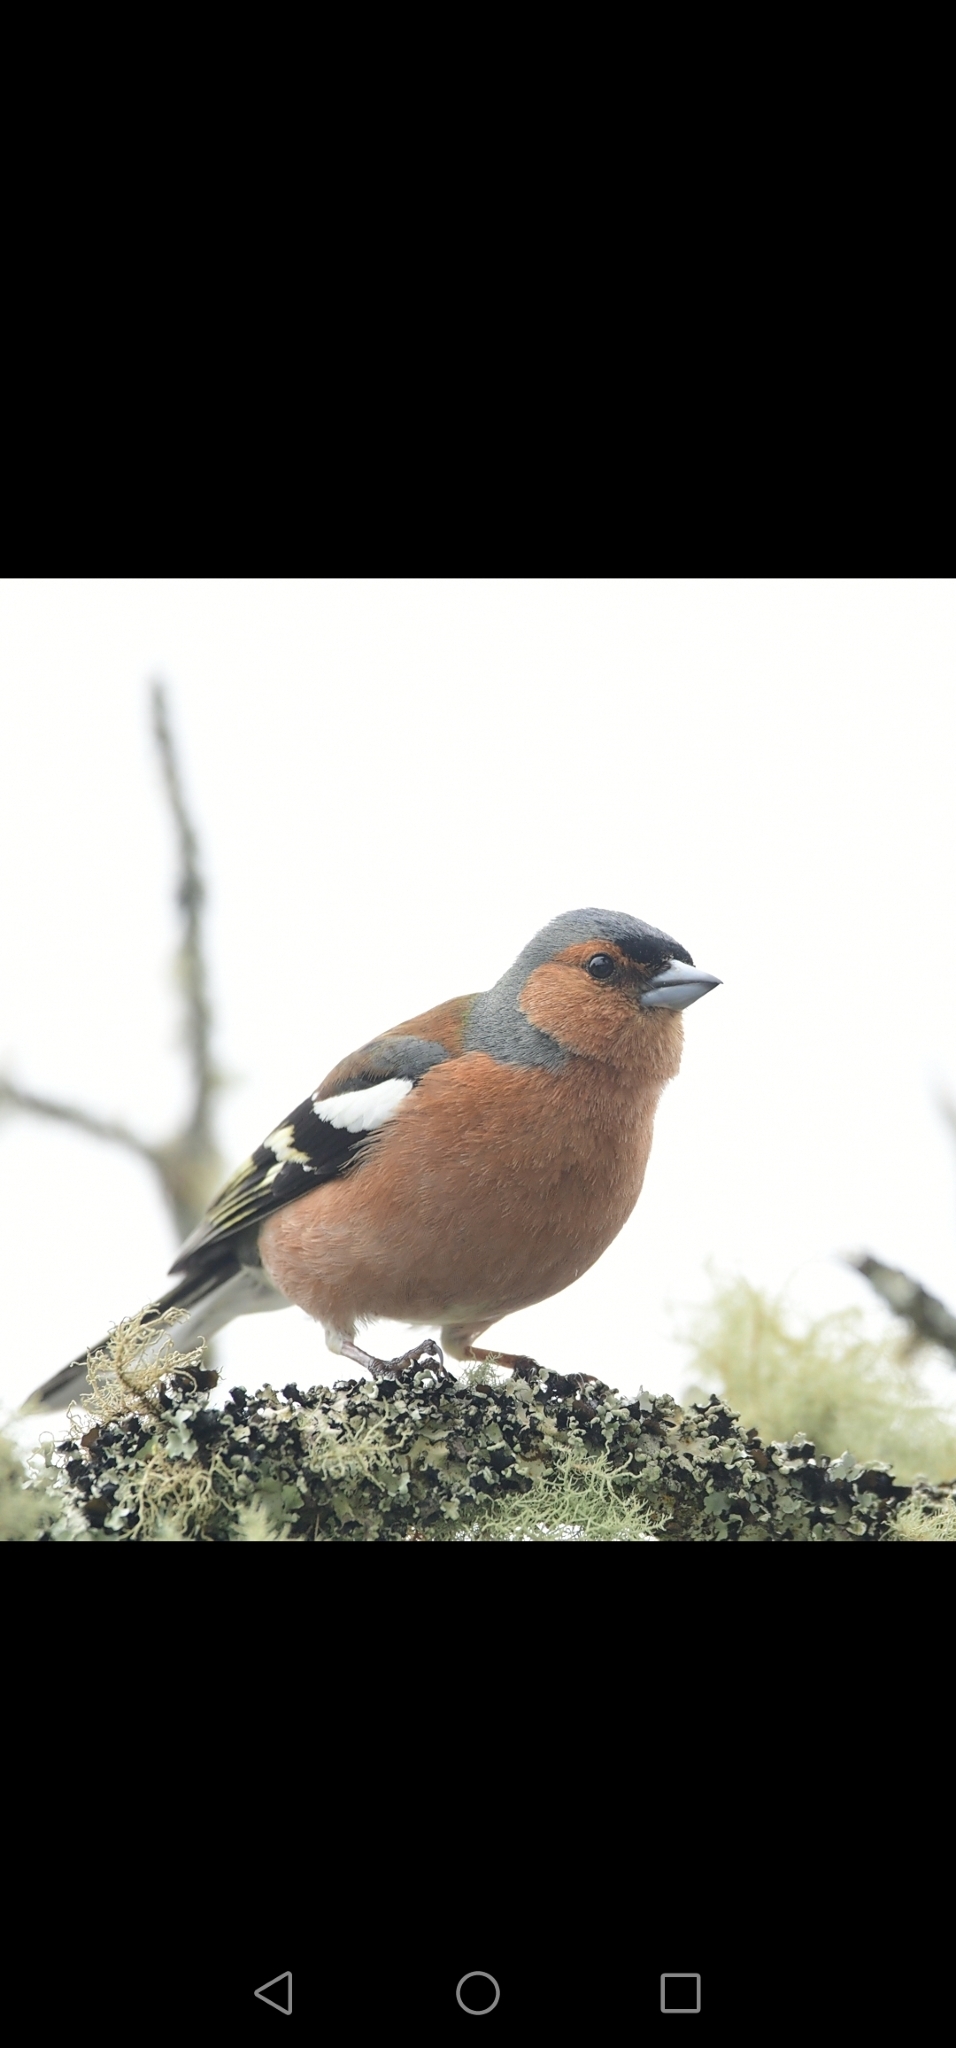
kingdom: Animalia
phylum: Chordata
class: Aves
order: Passeriformes
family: Fringillidae
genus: Fringilla
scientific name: Fringilla coelebs
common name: Common chaffinch
